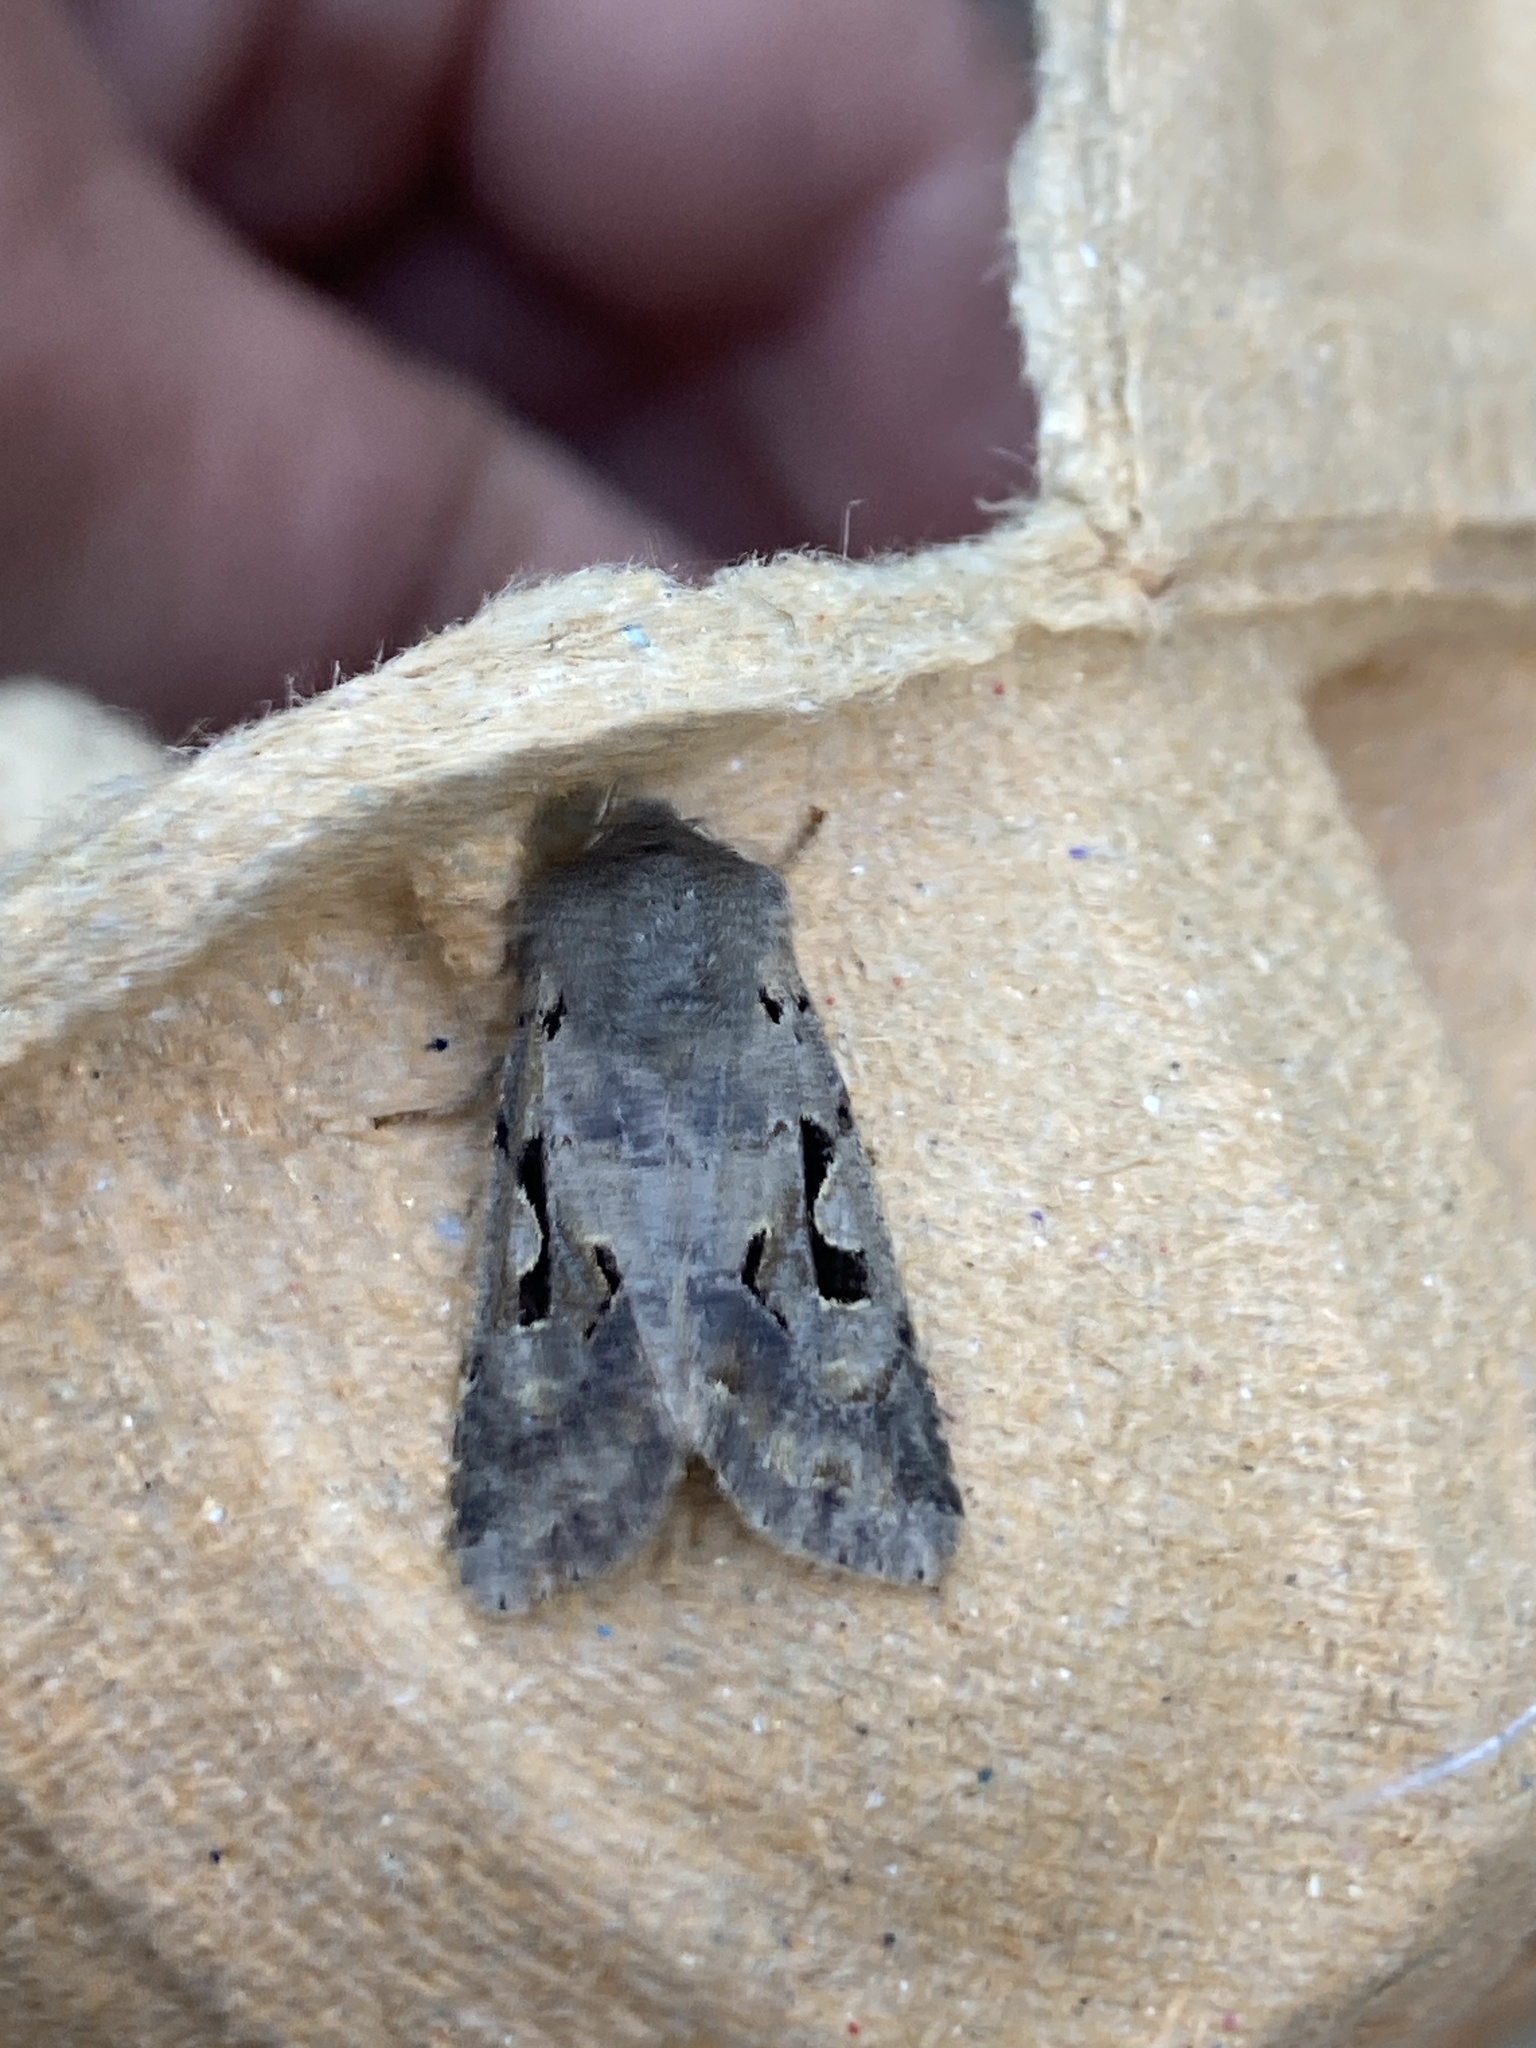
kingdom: Animalia
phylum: Arthropoda
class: Insecta
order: Lepidoptera
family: Noctuidae
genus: Orthosia
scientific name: Orthosia gothica
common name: Hebrew character
